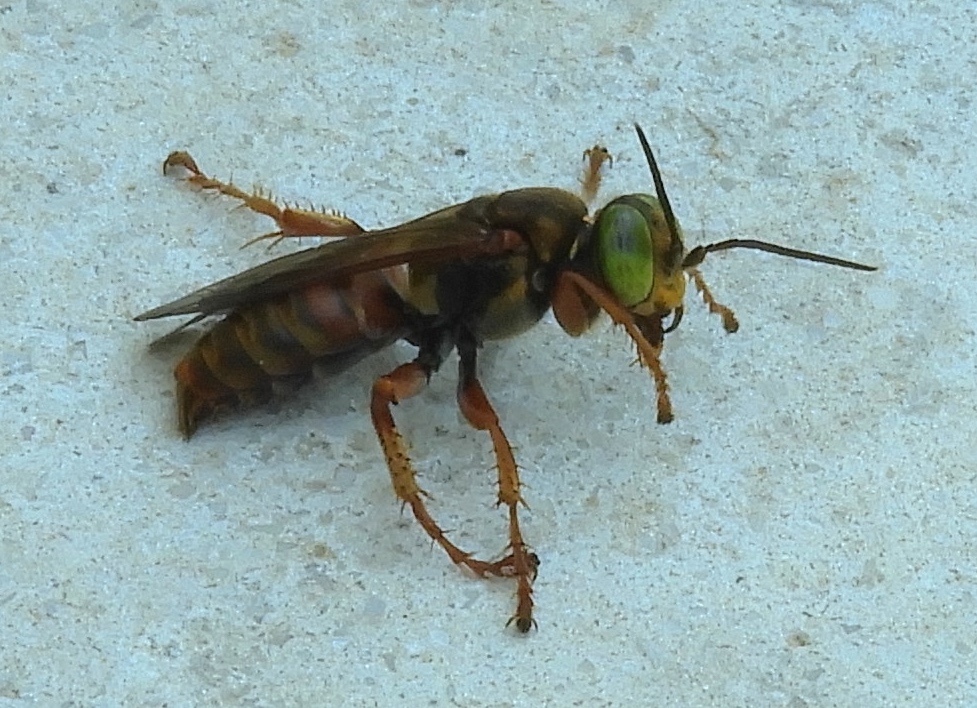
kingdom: Animalia
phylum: Arthropoda
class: Insecta
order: Hymenoptera
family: Crabronidae
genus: Tachytes
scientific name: Tachytes
